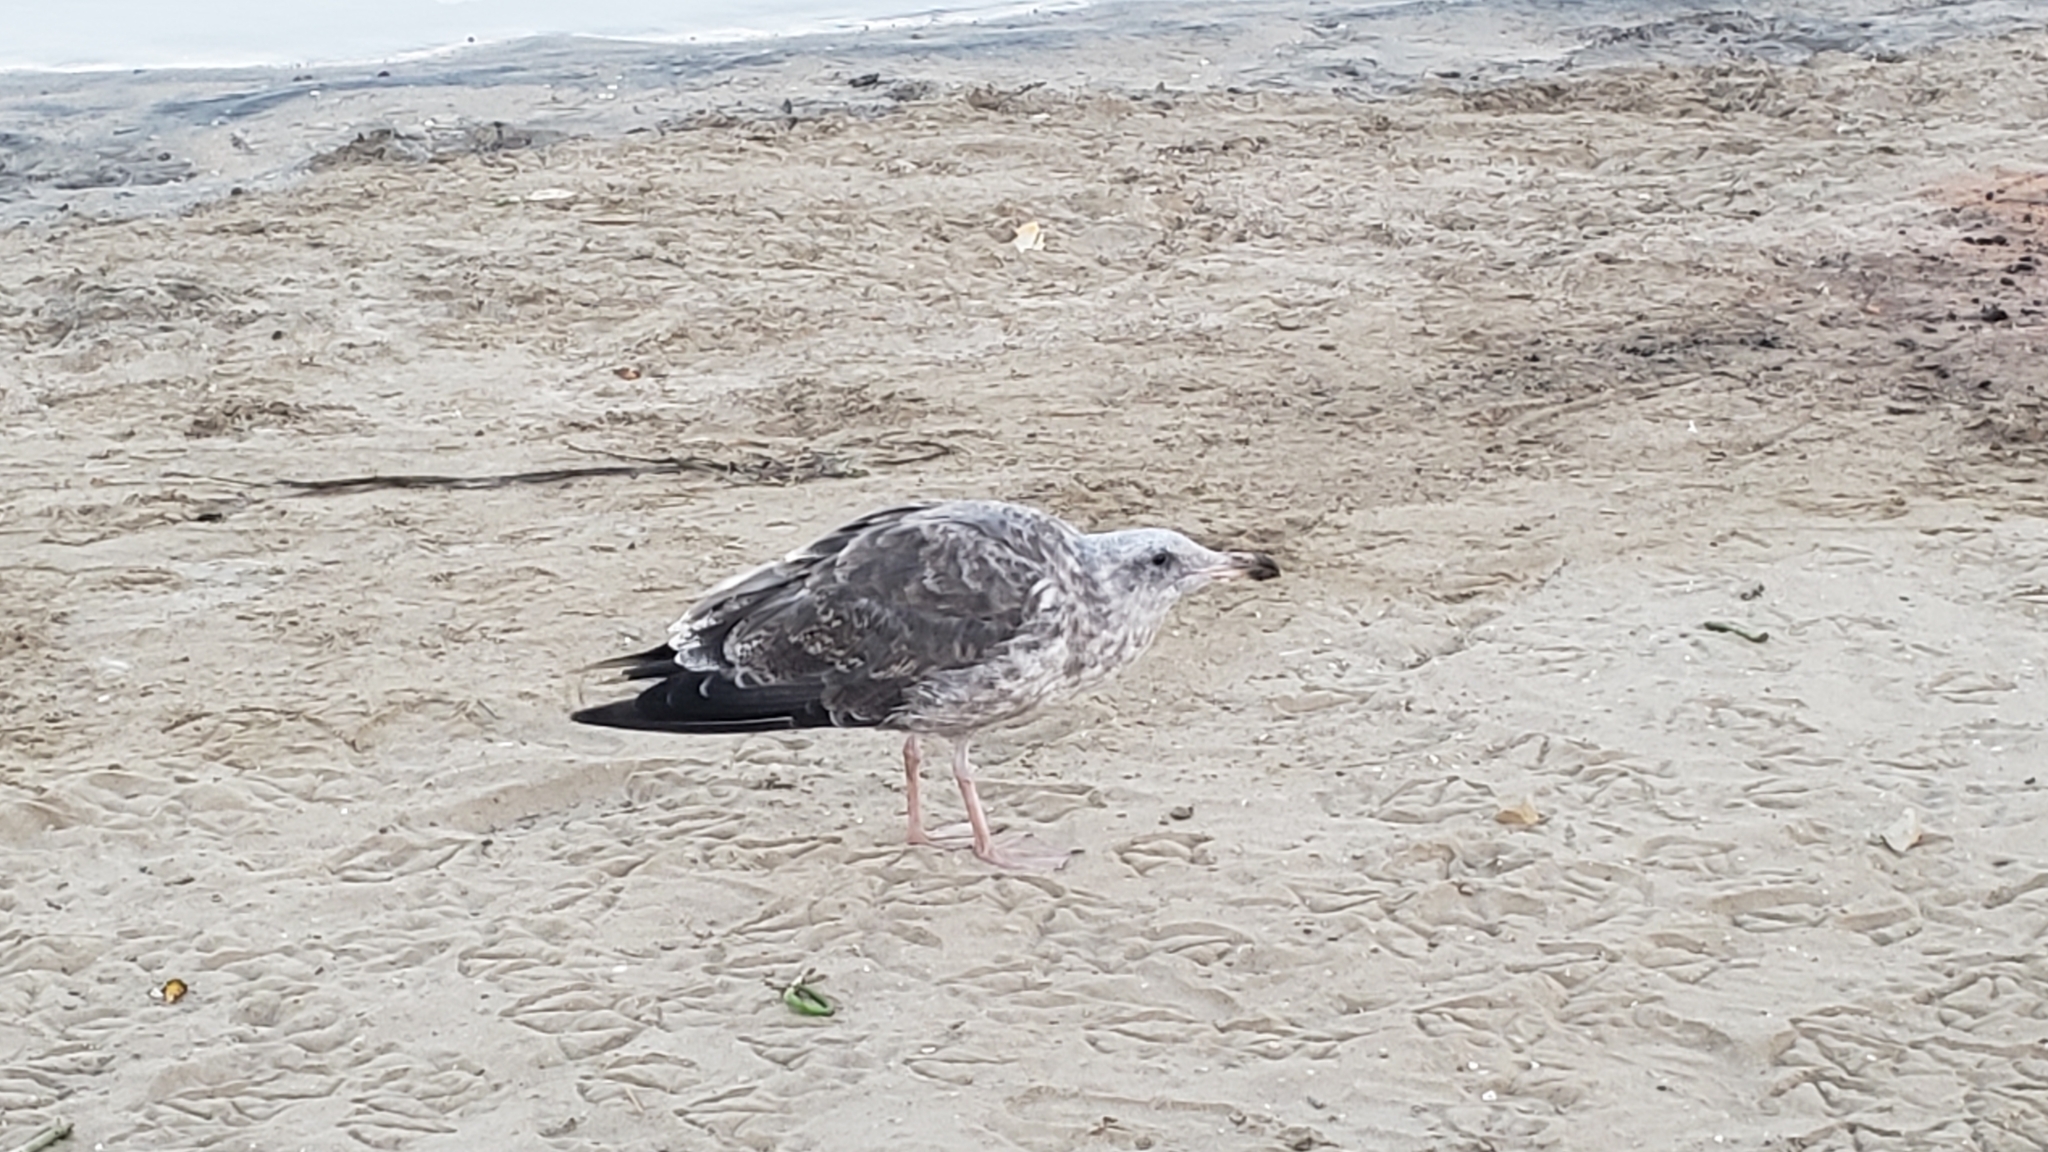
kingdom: Animalia
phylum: Chordata
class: Aves
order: Charadriiformes
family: Laridae
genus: Larus
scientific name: Larus occidentalis
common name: Western gull
